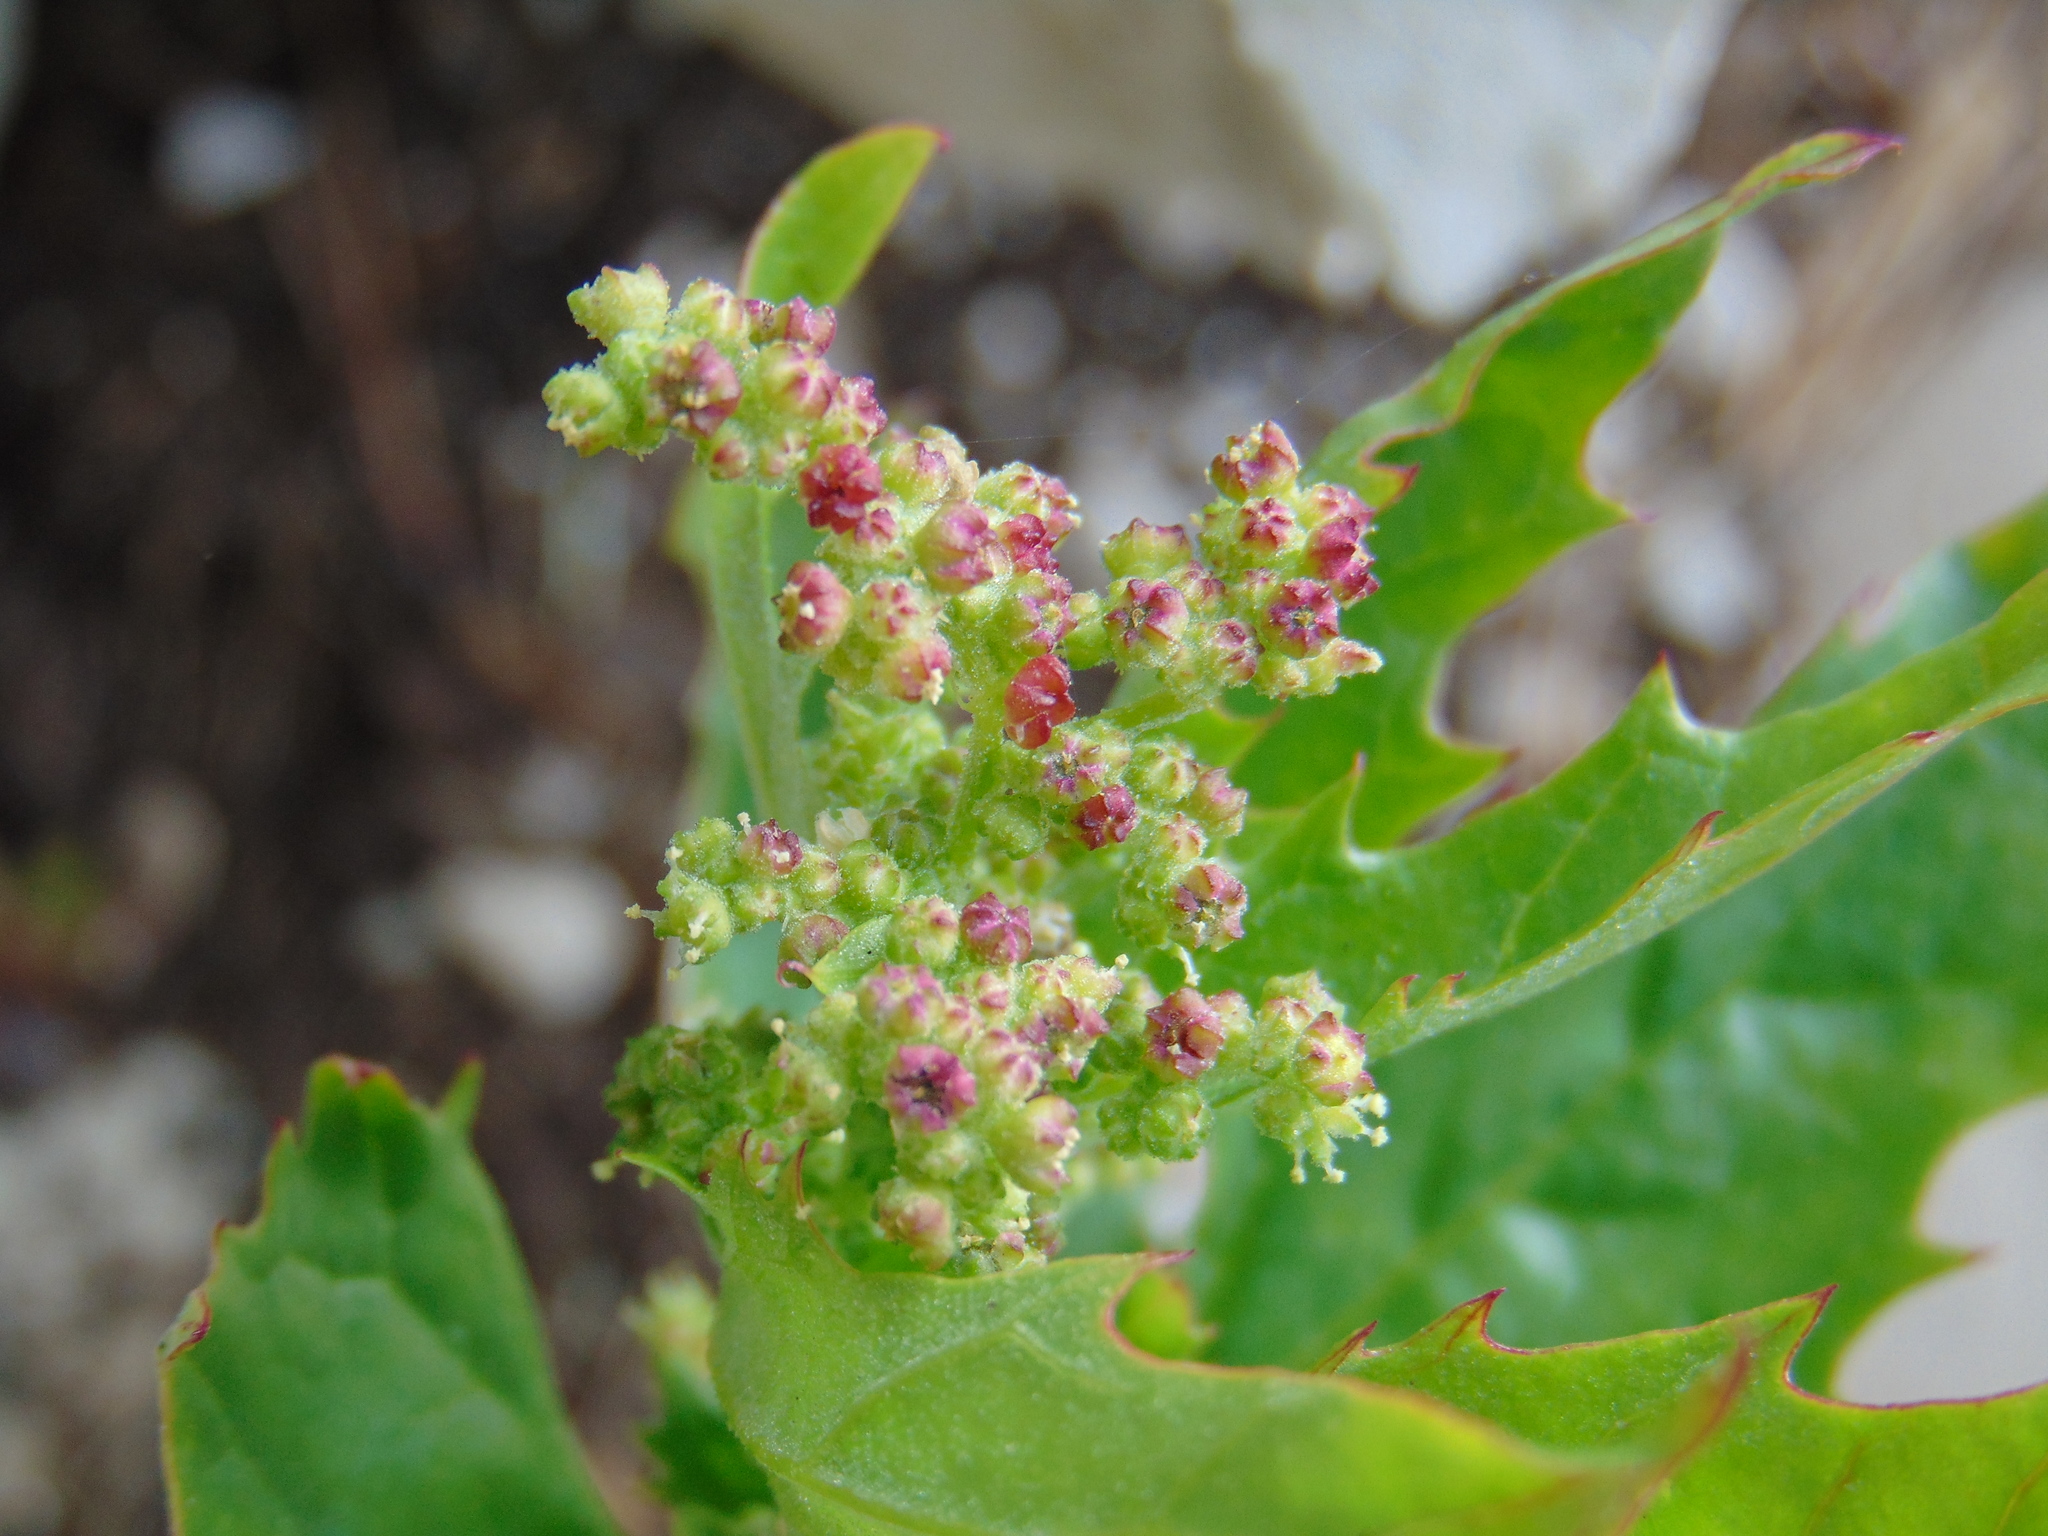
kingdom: Plantae
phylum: Tracheophyta
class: Magnoliopsida
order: Caryophyllales
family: Amaranthaceae
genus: Chenopodiastrum
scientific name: Chenopodiastrum murale
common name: Sowbane
